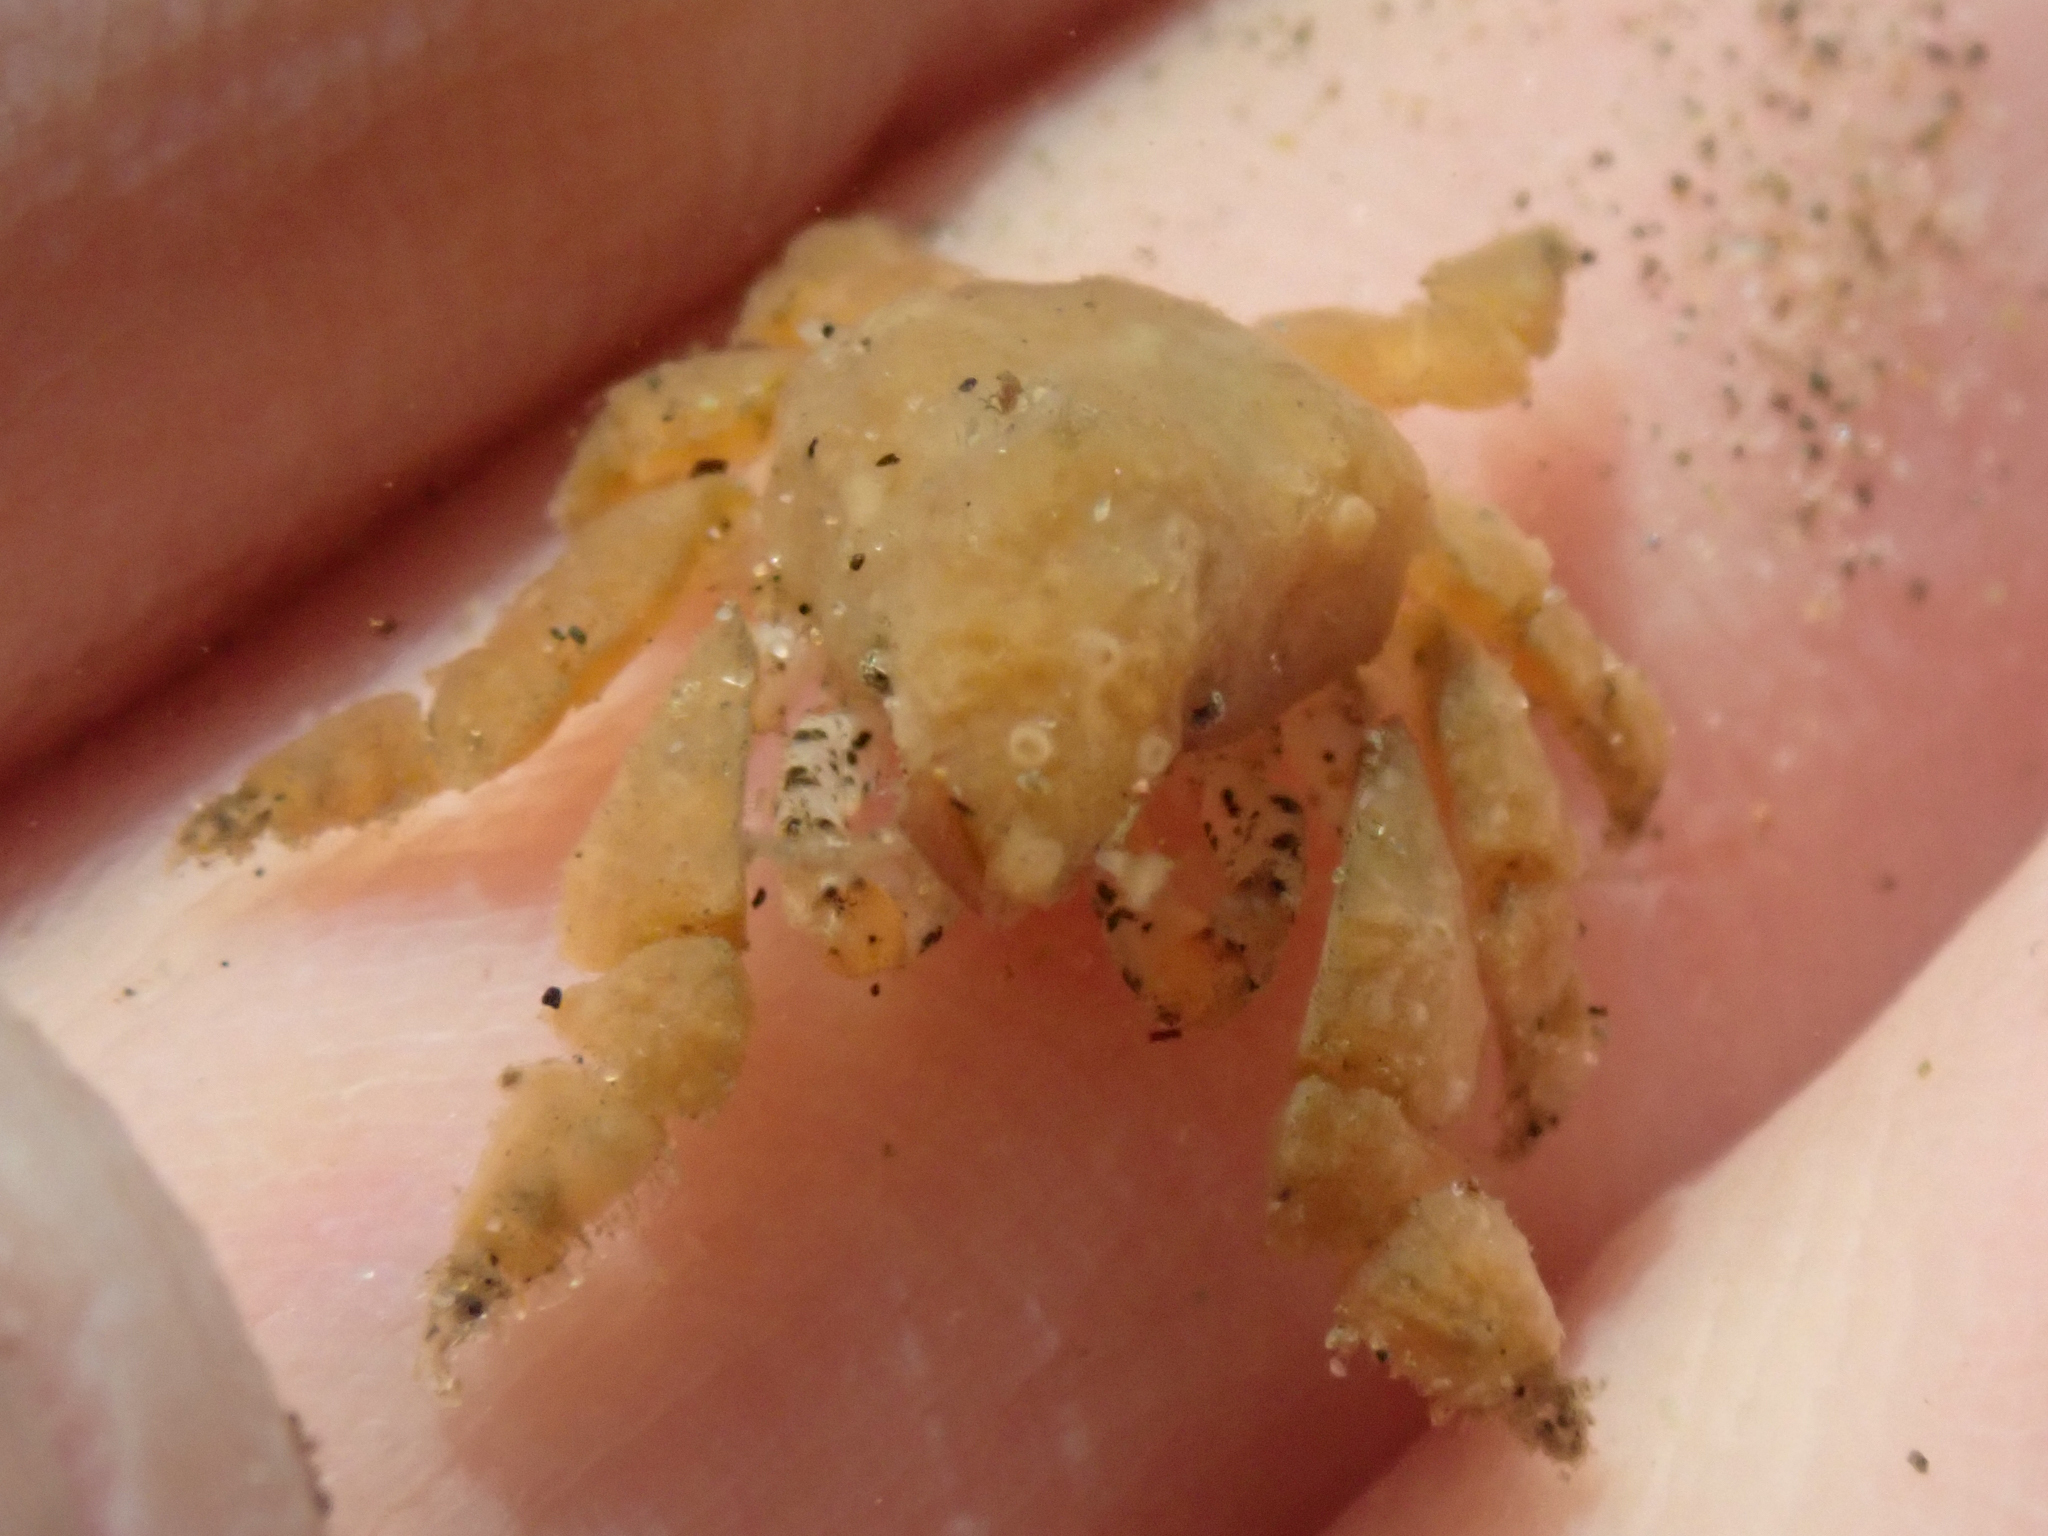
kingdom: Animalia
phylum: Arthropoda
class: Malacostraca
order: Decapoda
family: Epialtidae
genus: Pelia
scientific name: Pelia tumida
